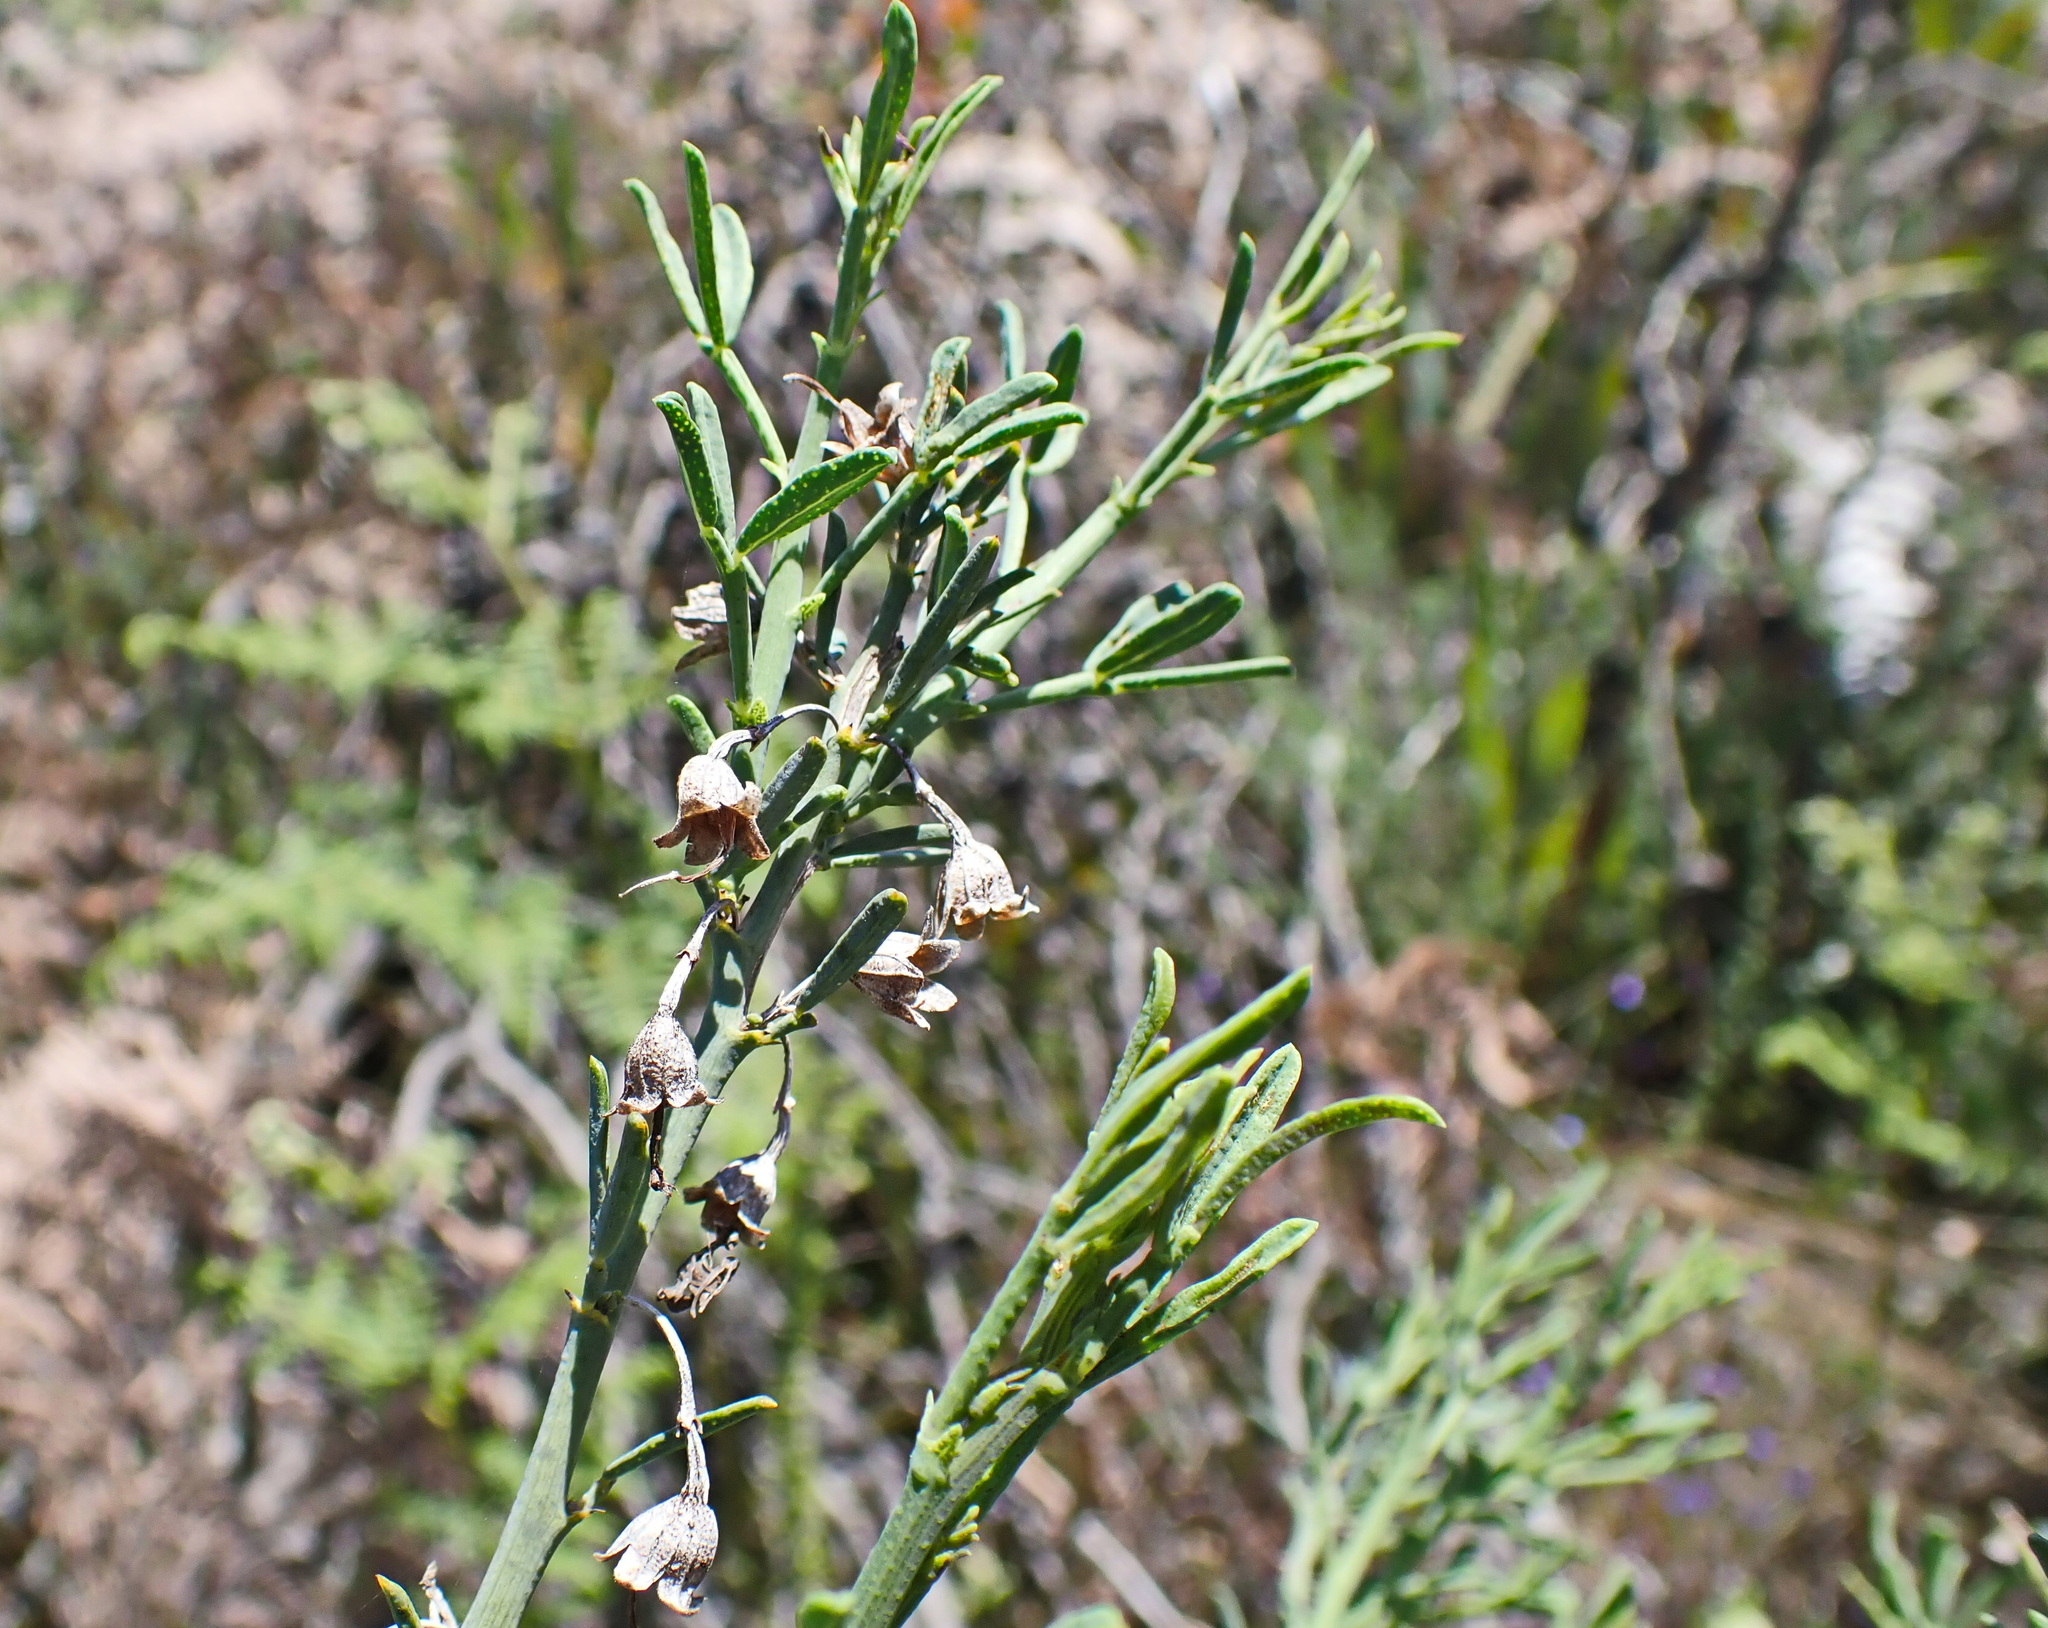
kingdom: Plantae
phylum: Tracheophyta
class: Magnoliopsida
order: Fabales
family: Fabaceae
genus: Psoralea
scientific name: Psoralea axillaris
